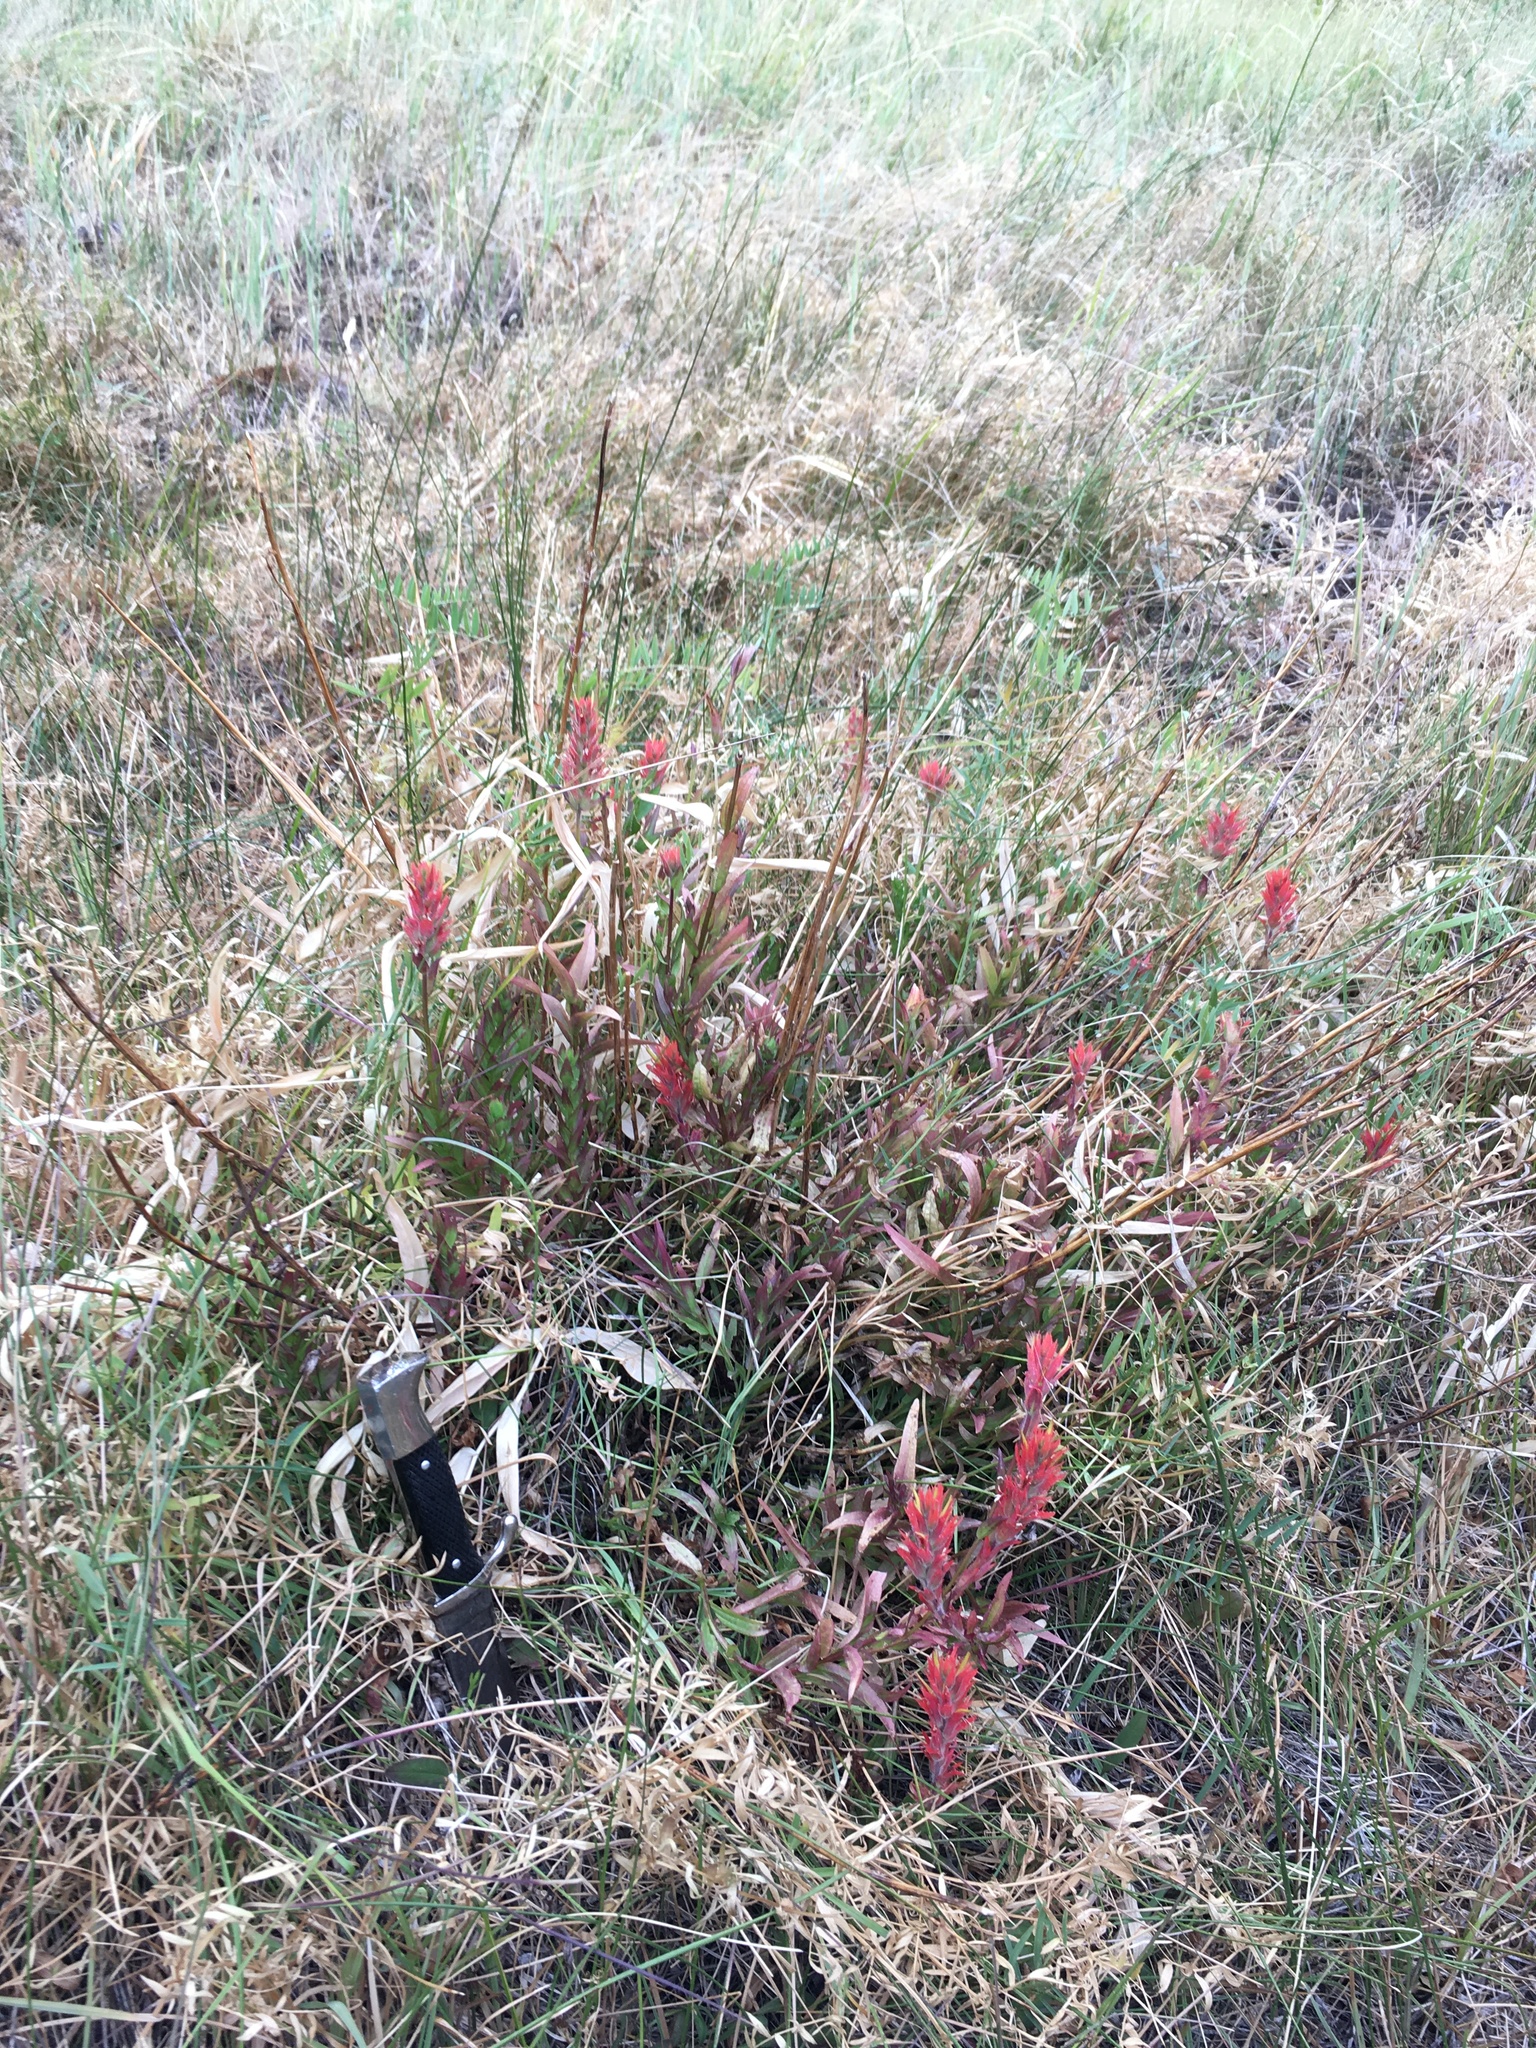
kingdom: Plantae
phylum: Tracheophyta
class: Magnoliopsida
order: Lamiales
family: Orobanchaceae
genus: Castilleja
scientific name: Castilleja miniata
